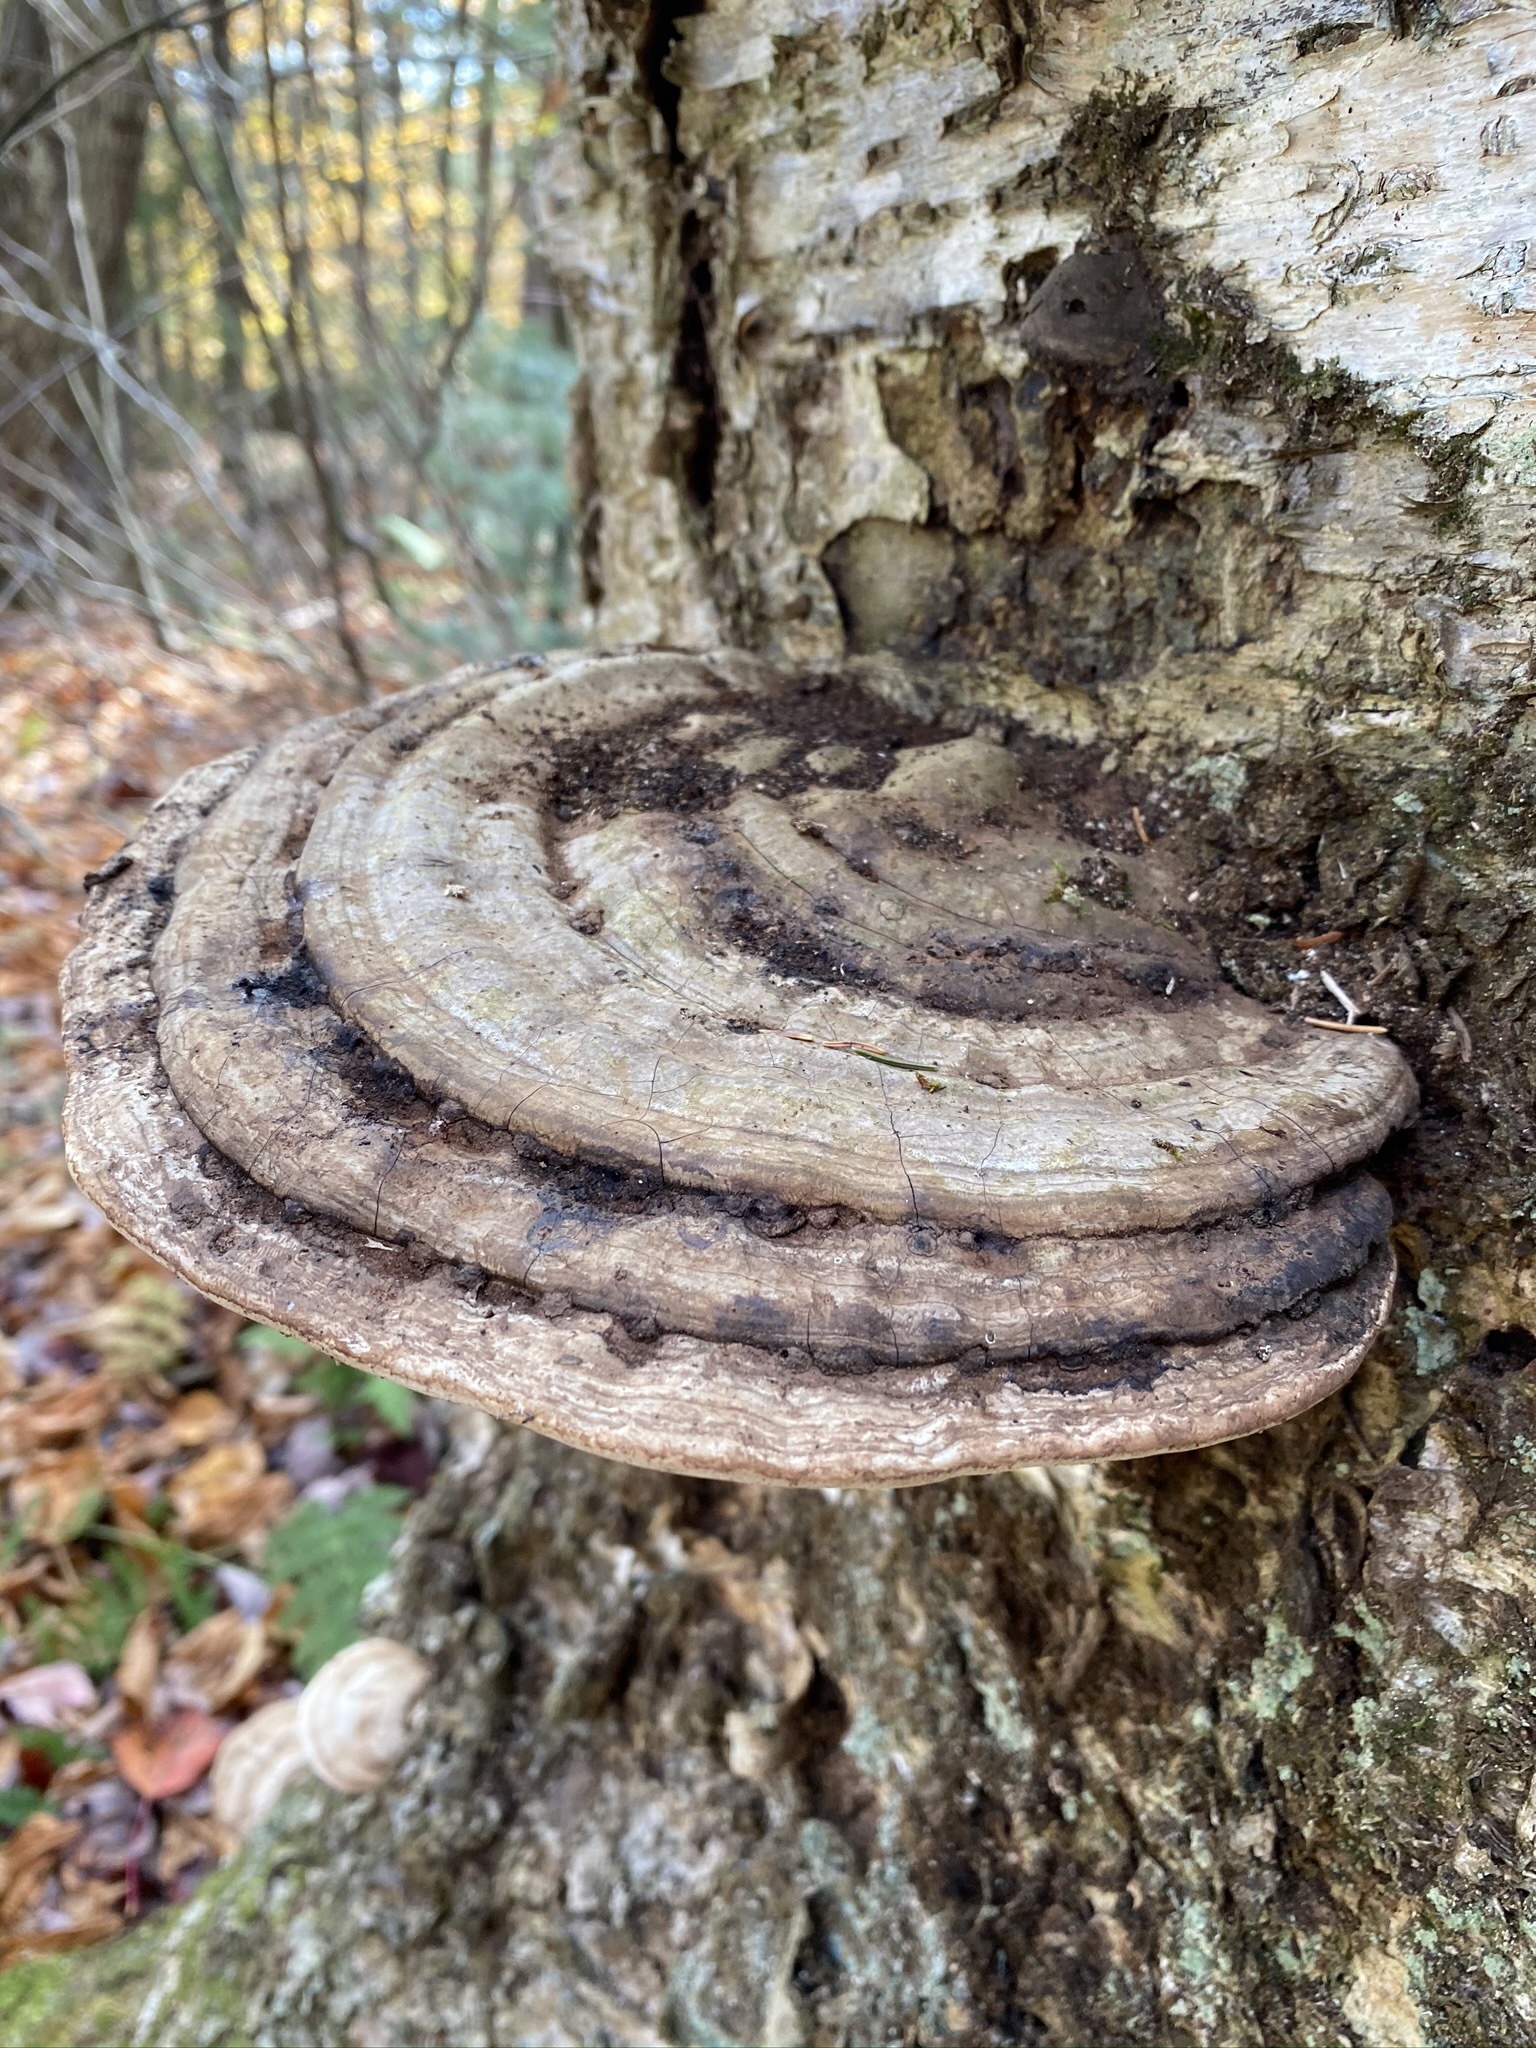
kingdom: Fungi
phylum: Basidiomycota
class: Agaricomycetes
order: Polyporales
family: Polyporaceae
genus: Ganoderma
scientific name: Ganoderma applanatum
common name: Artist's bracket
